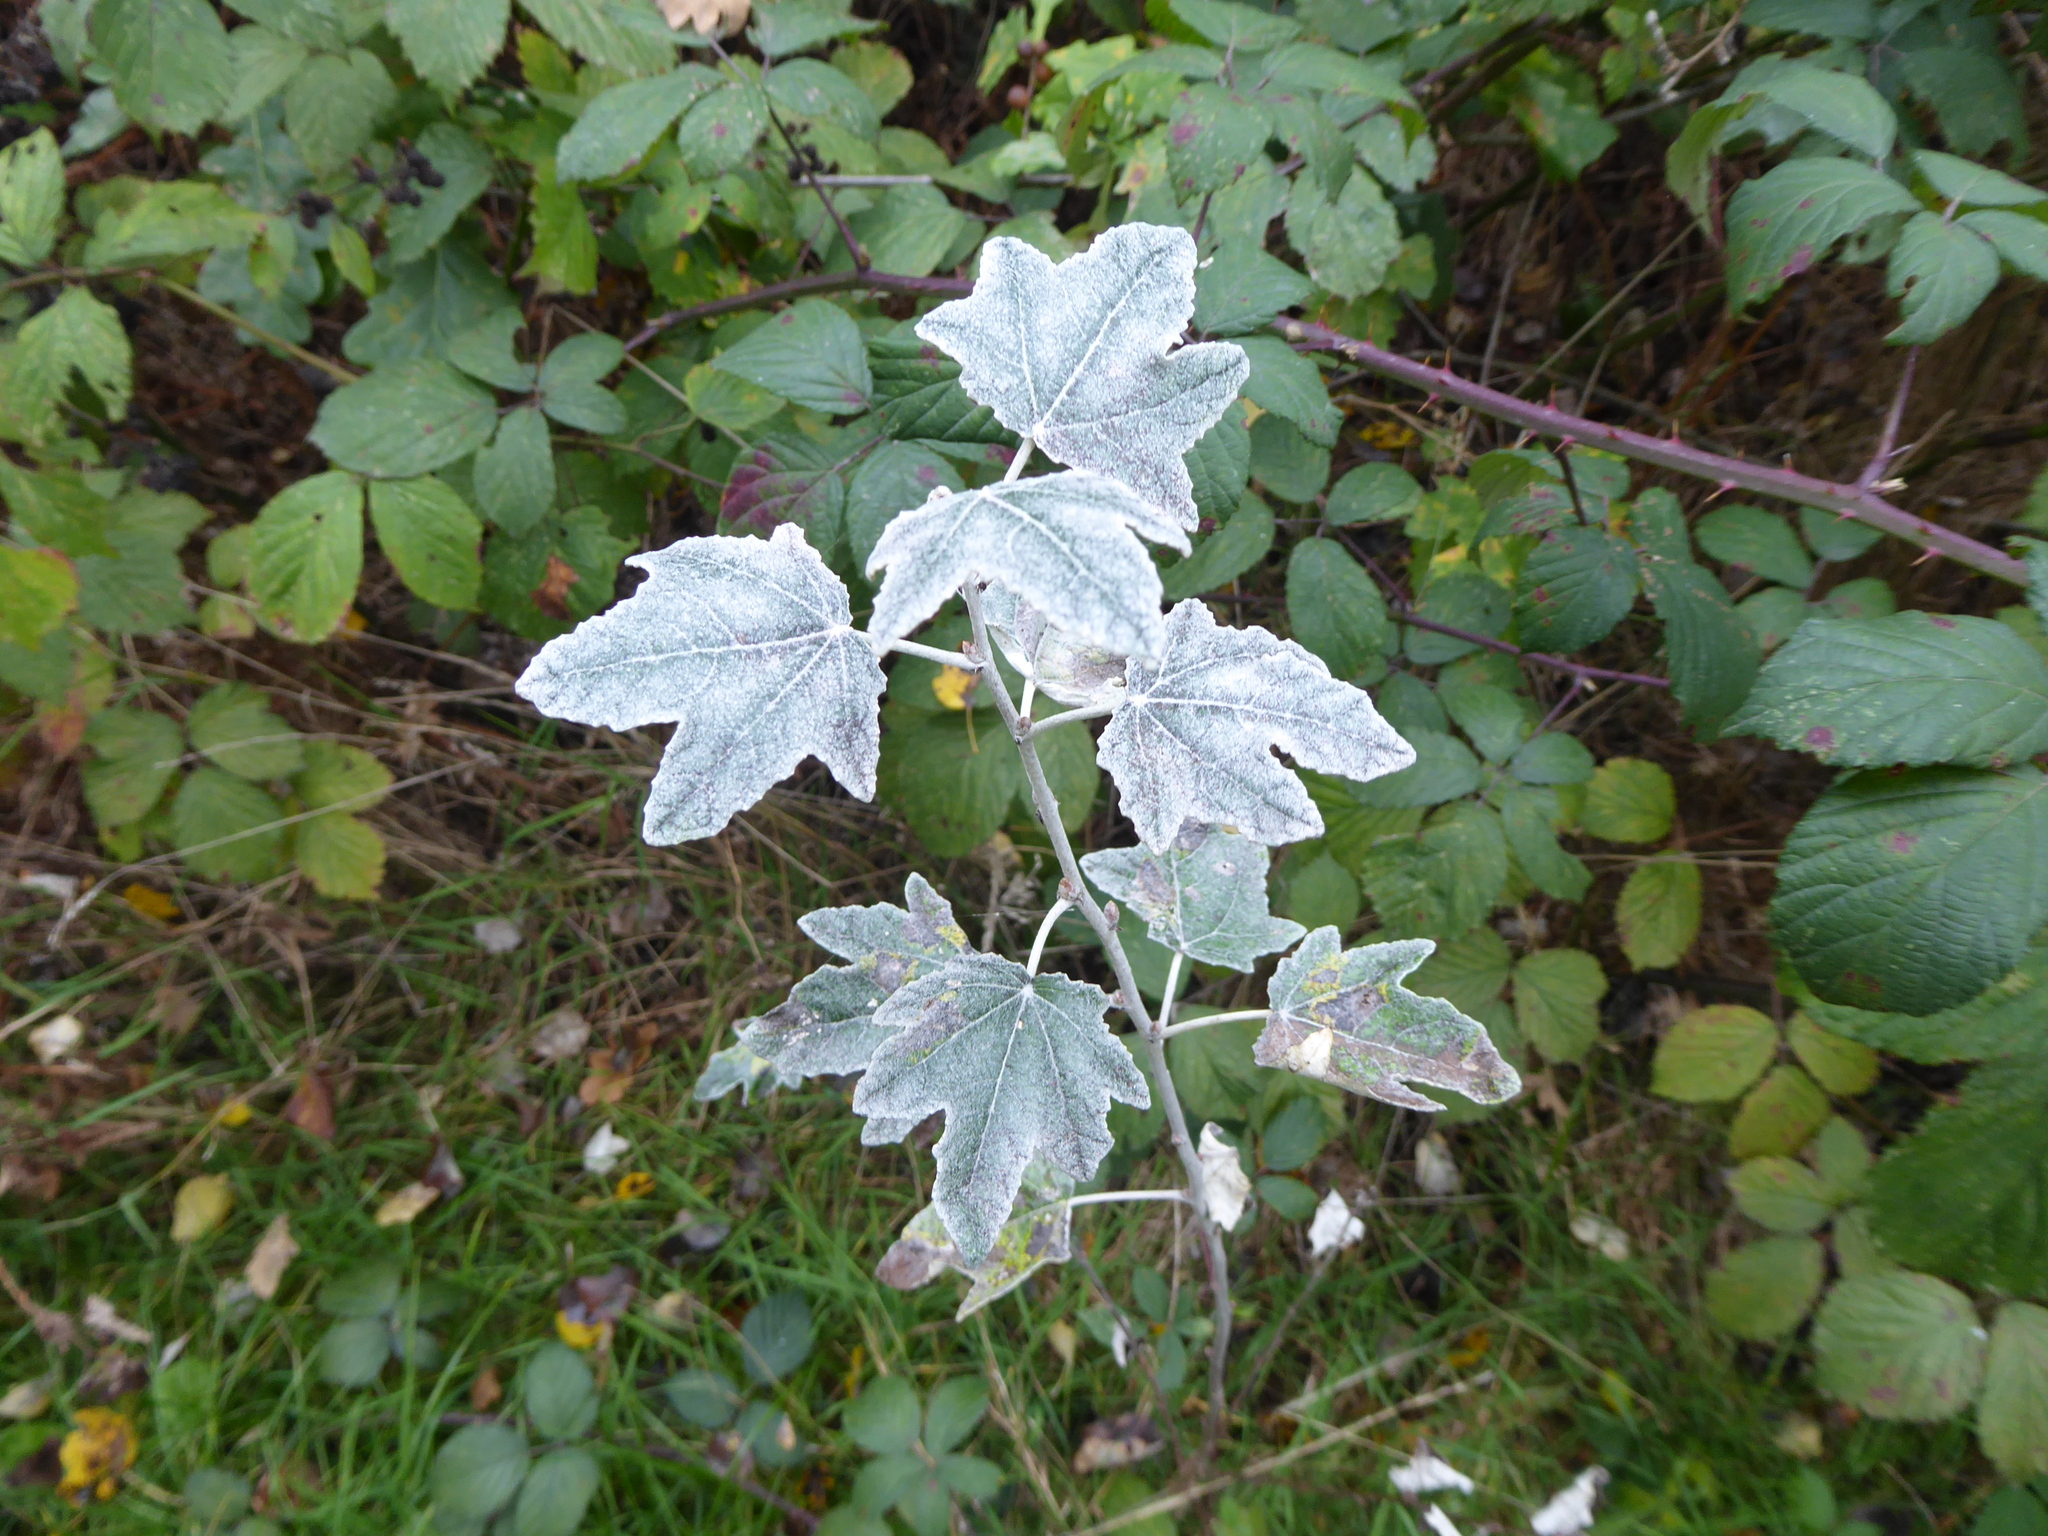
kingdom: Plantae
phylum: Tracheophyta
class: Magnoliopsida
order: Malpighiales
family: Salicaceae
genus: Populus
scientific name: Populus alba
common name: White poplar
